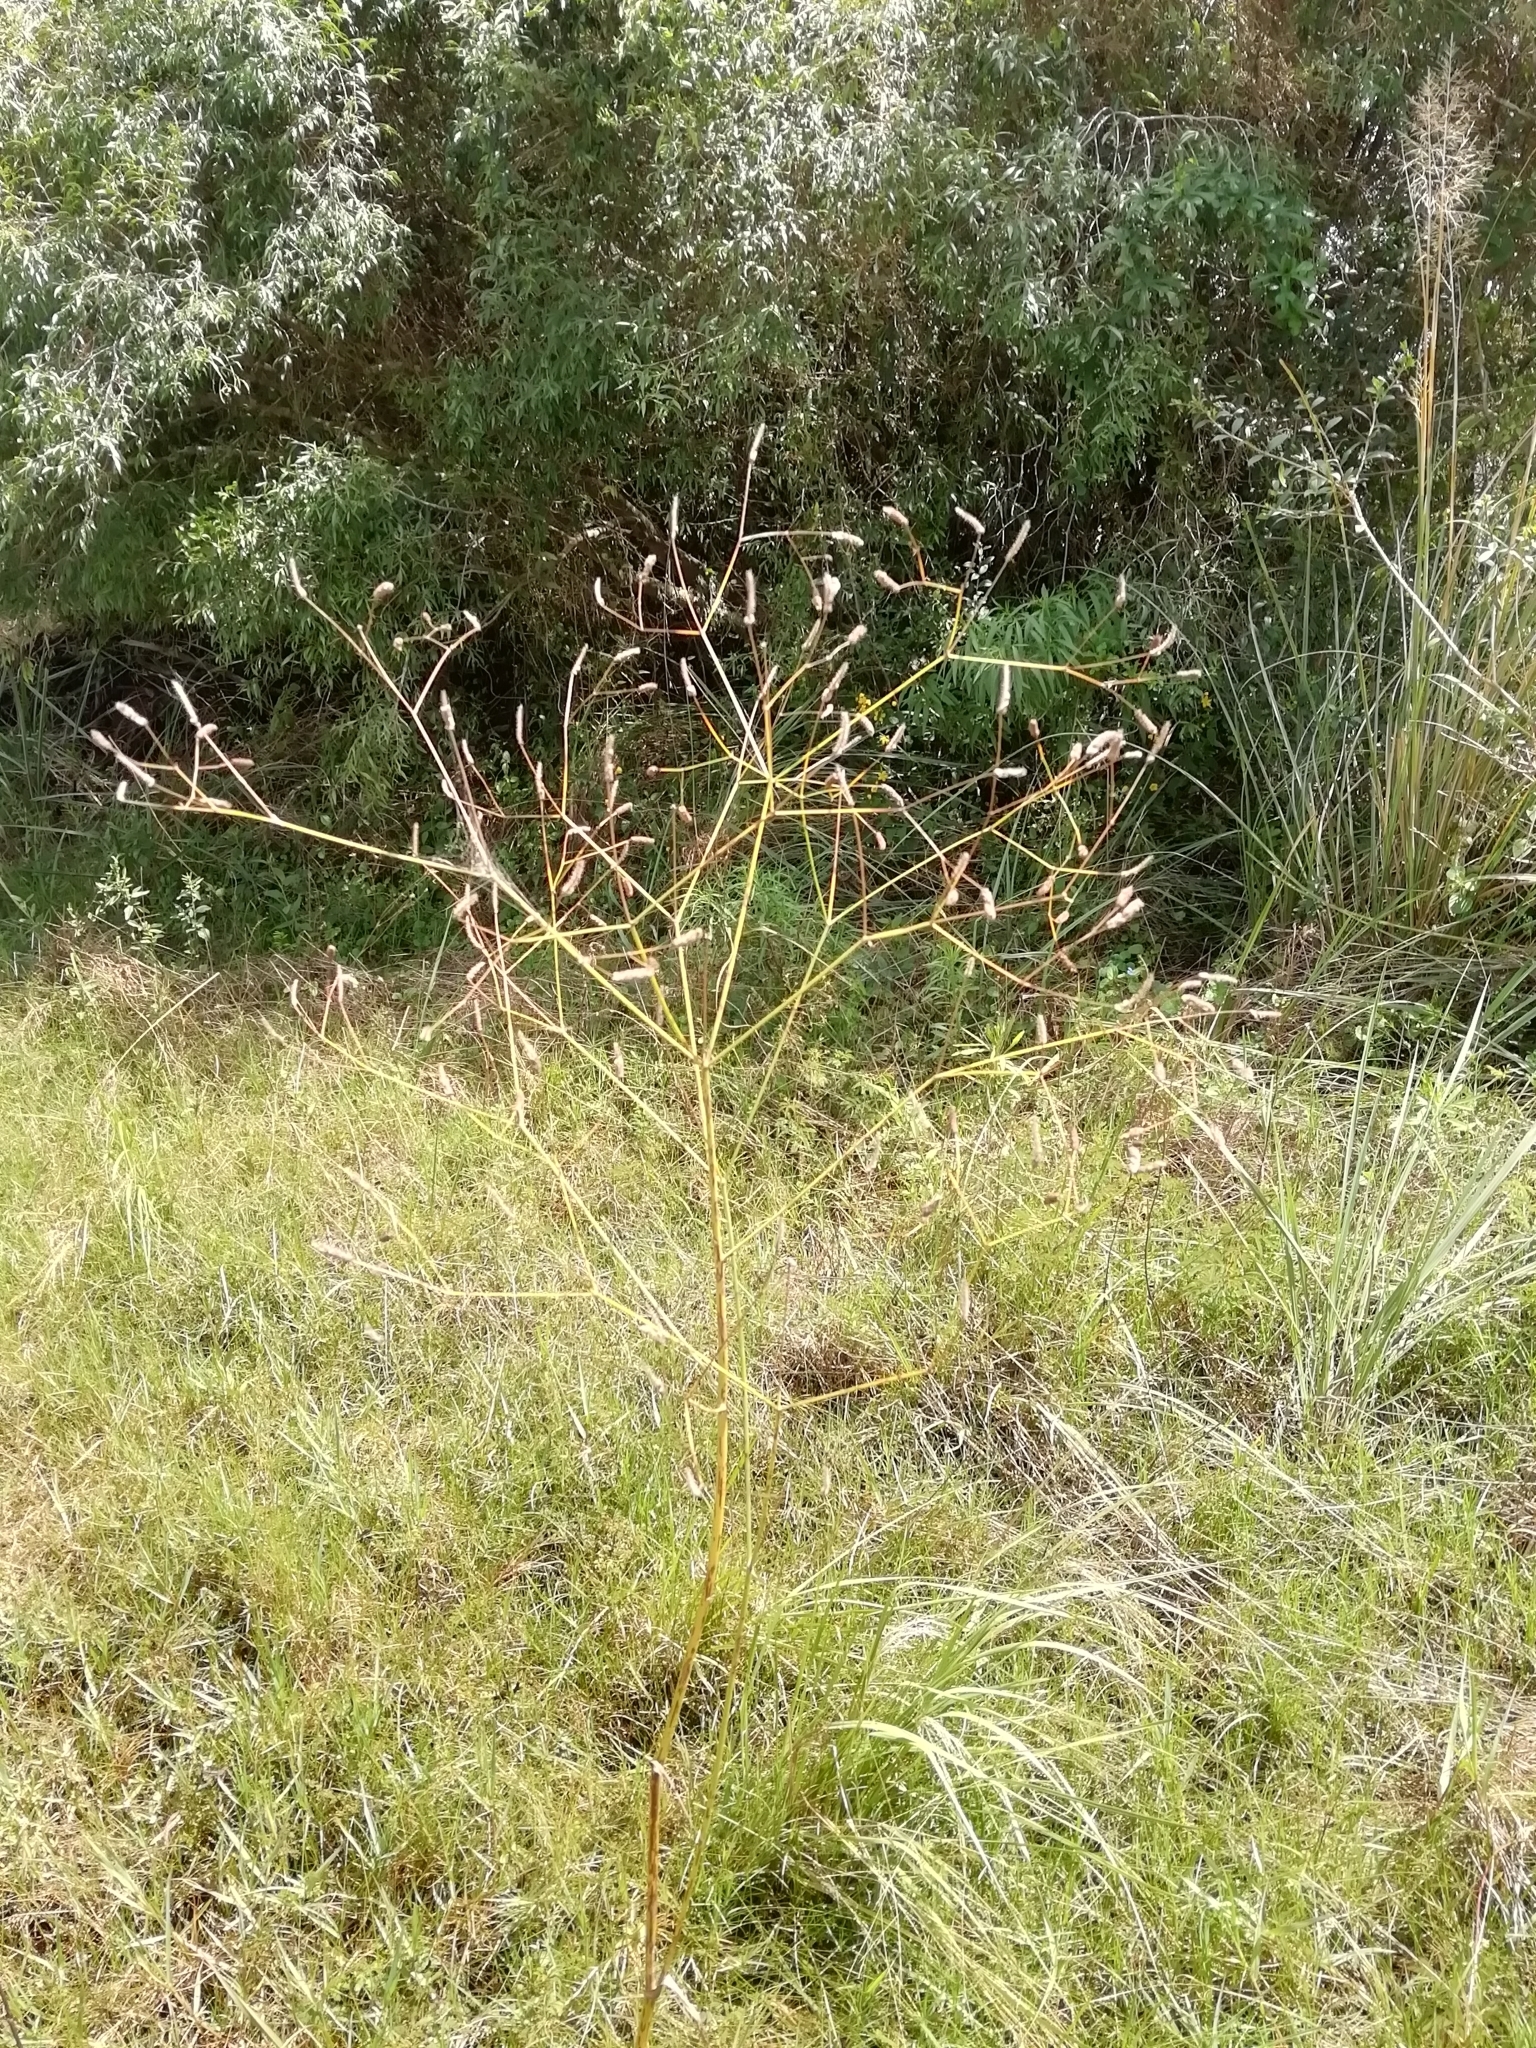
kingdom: Plantae
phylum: Tracheophyta
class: Magnoliopsida
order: Apiales
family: Apiaceae
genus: Eryngium
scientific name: Eryngium ebracteatum
